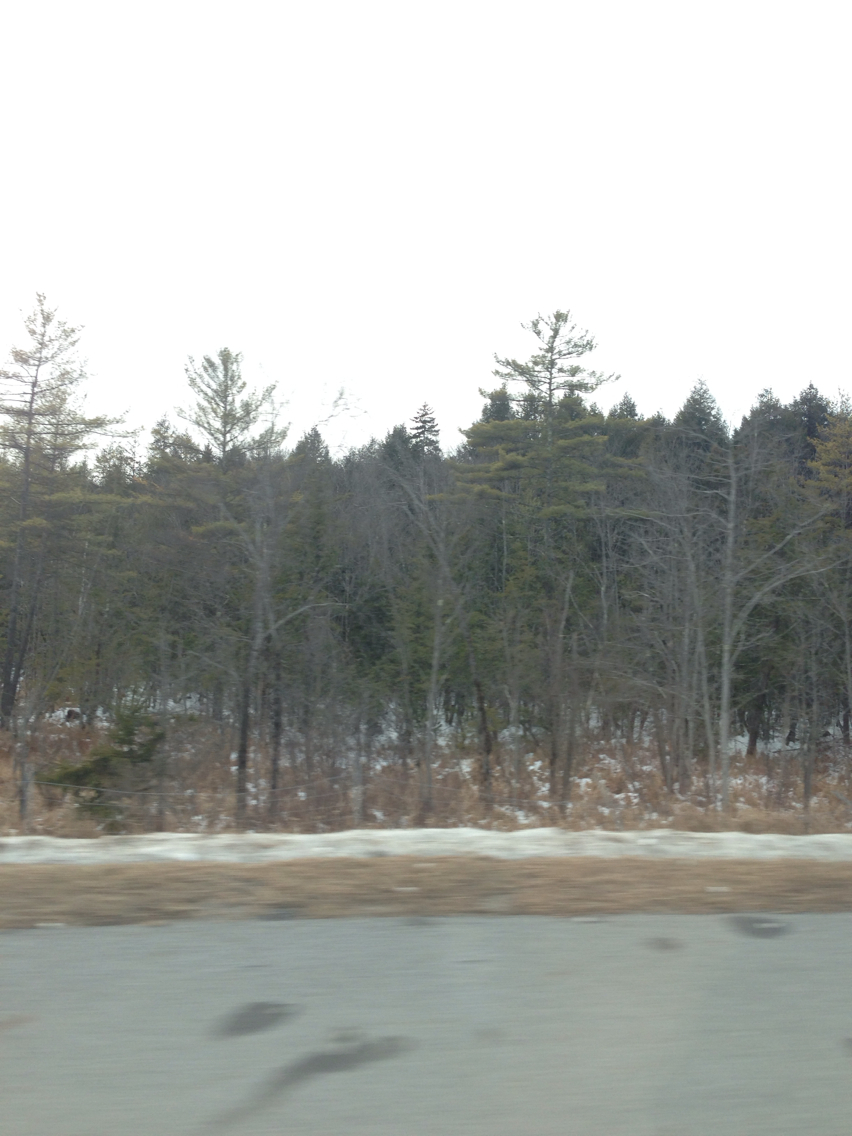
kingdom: Plantae
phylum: Tracheophyta
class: Pinopsida
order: Pinales
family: Pinaceae
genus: Pinus
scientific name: Pinus strobus
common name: Weymouth pine
